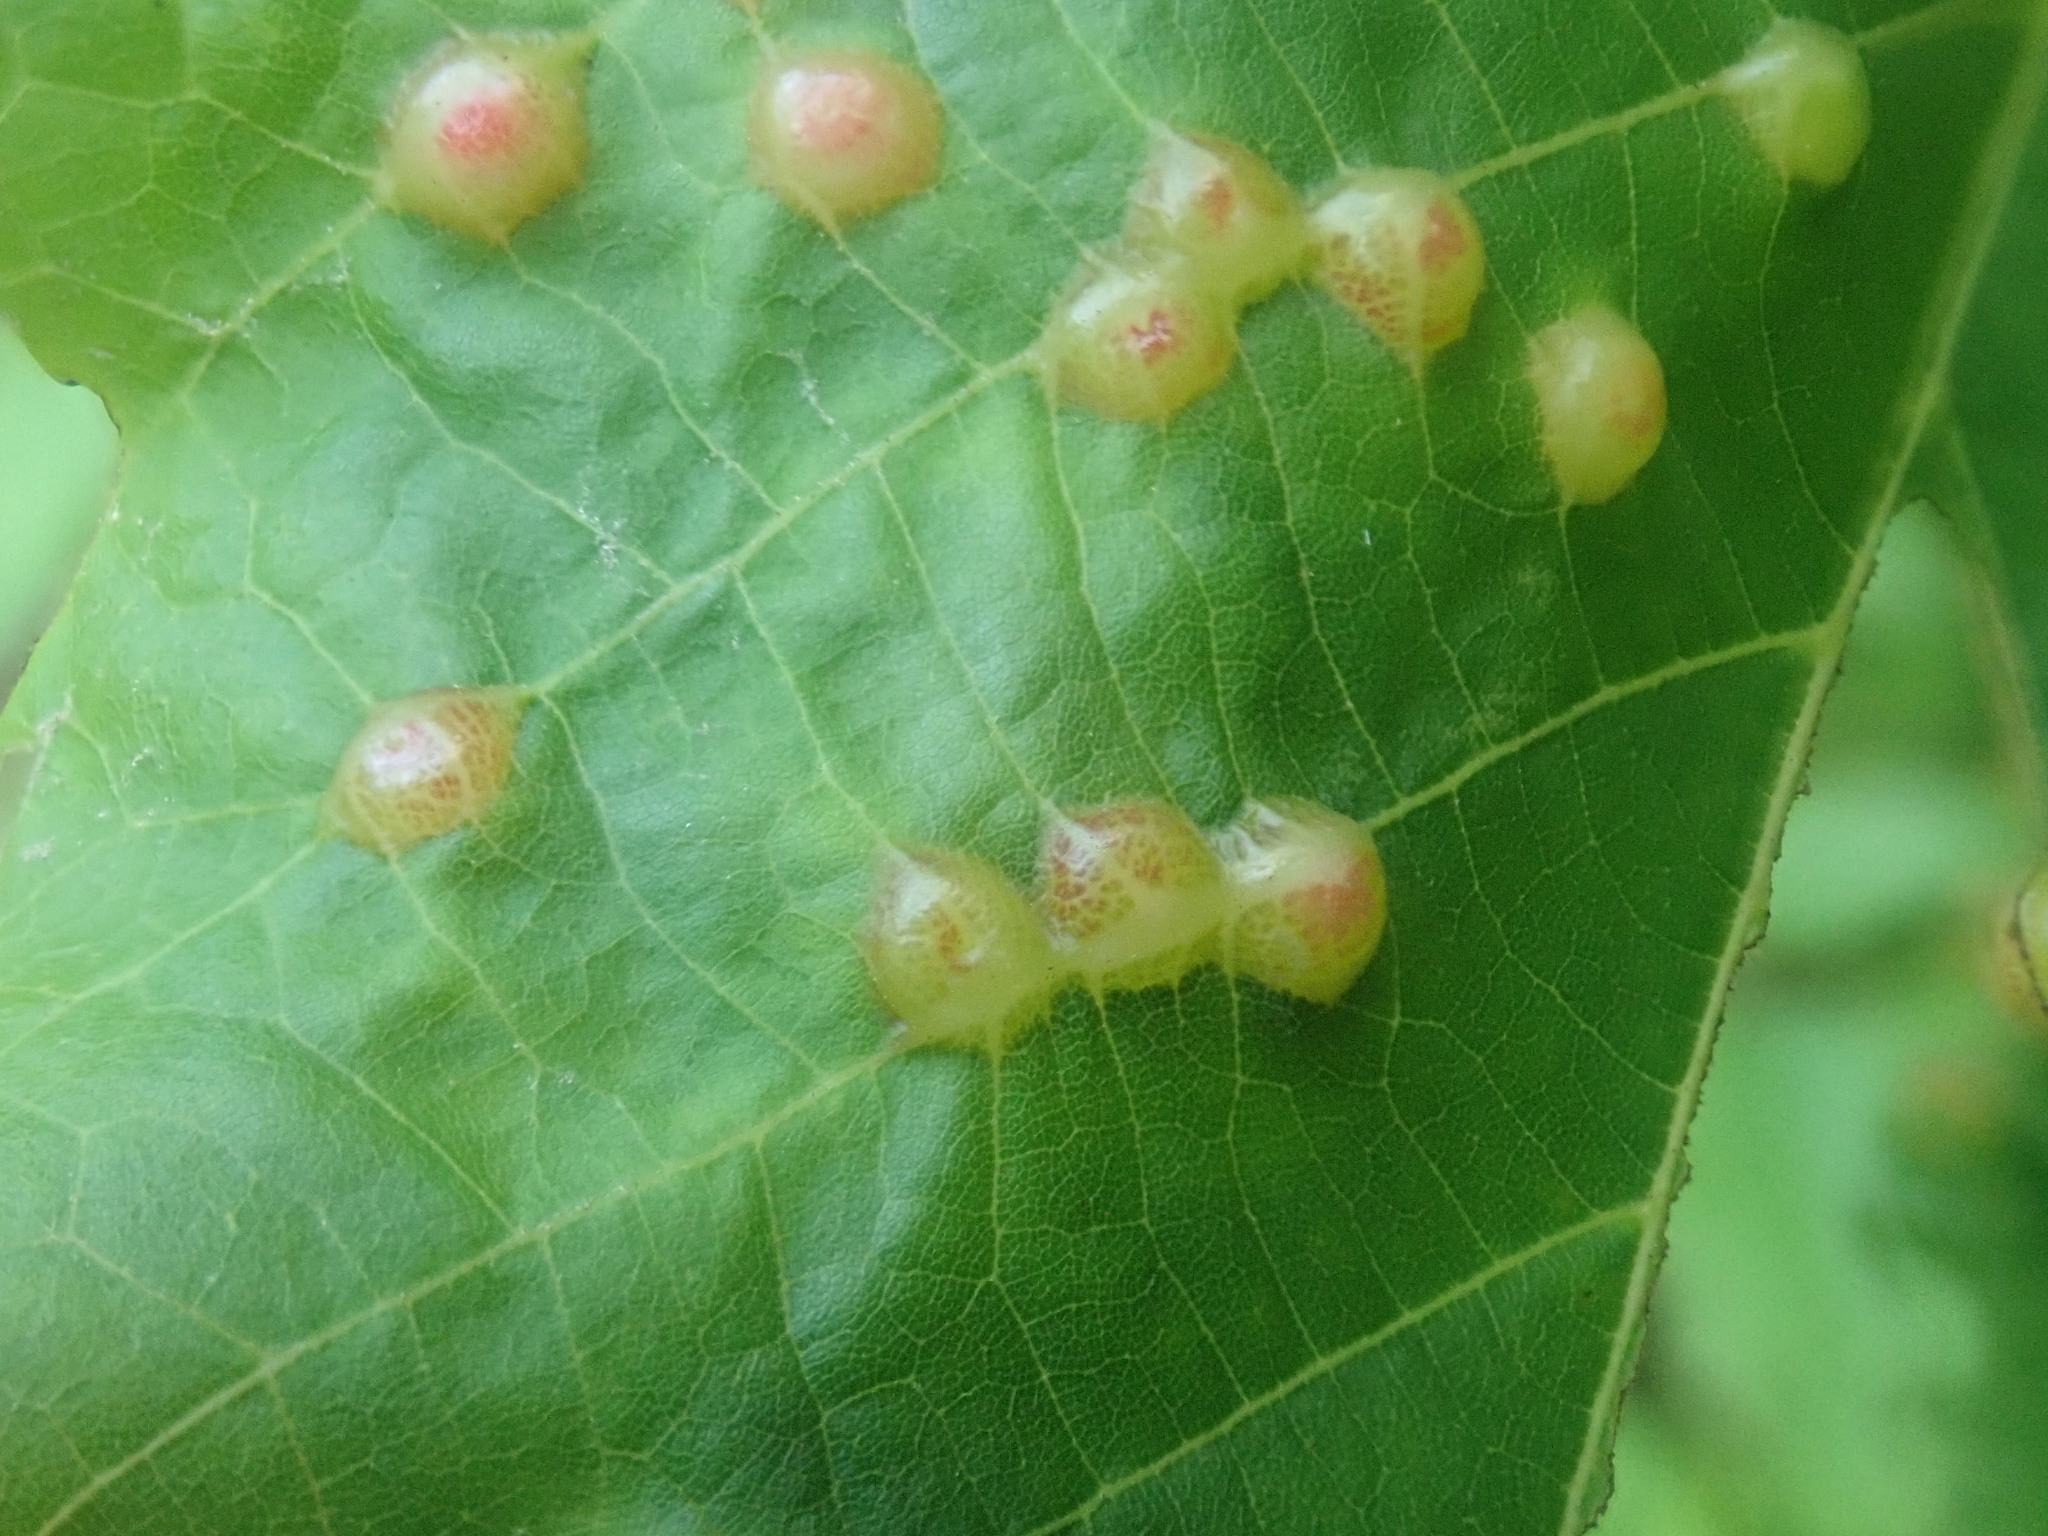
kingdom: Animalia
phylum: Arthropoda
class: Insecta
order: Diptera
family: Cecidomyiidae
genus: Contarinia
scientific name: Contarinia verrucicola
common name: Linden wart gall midge
